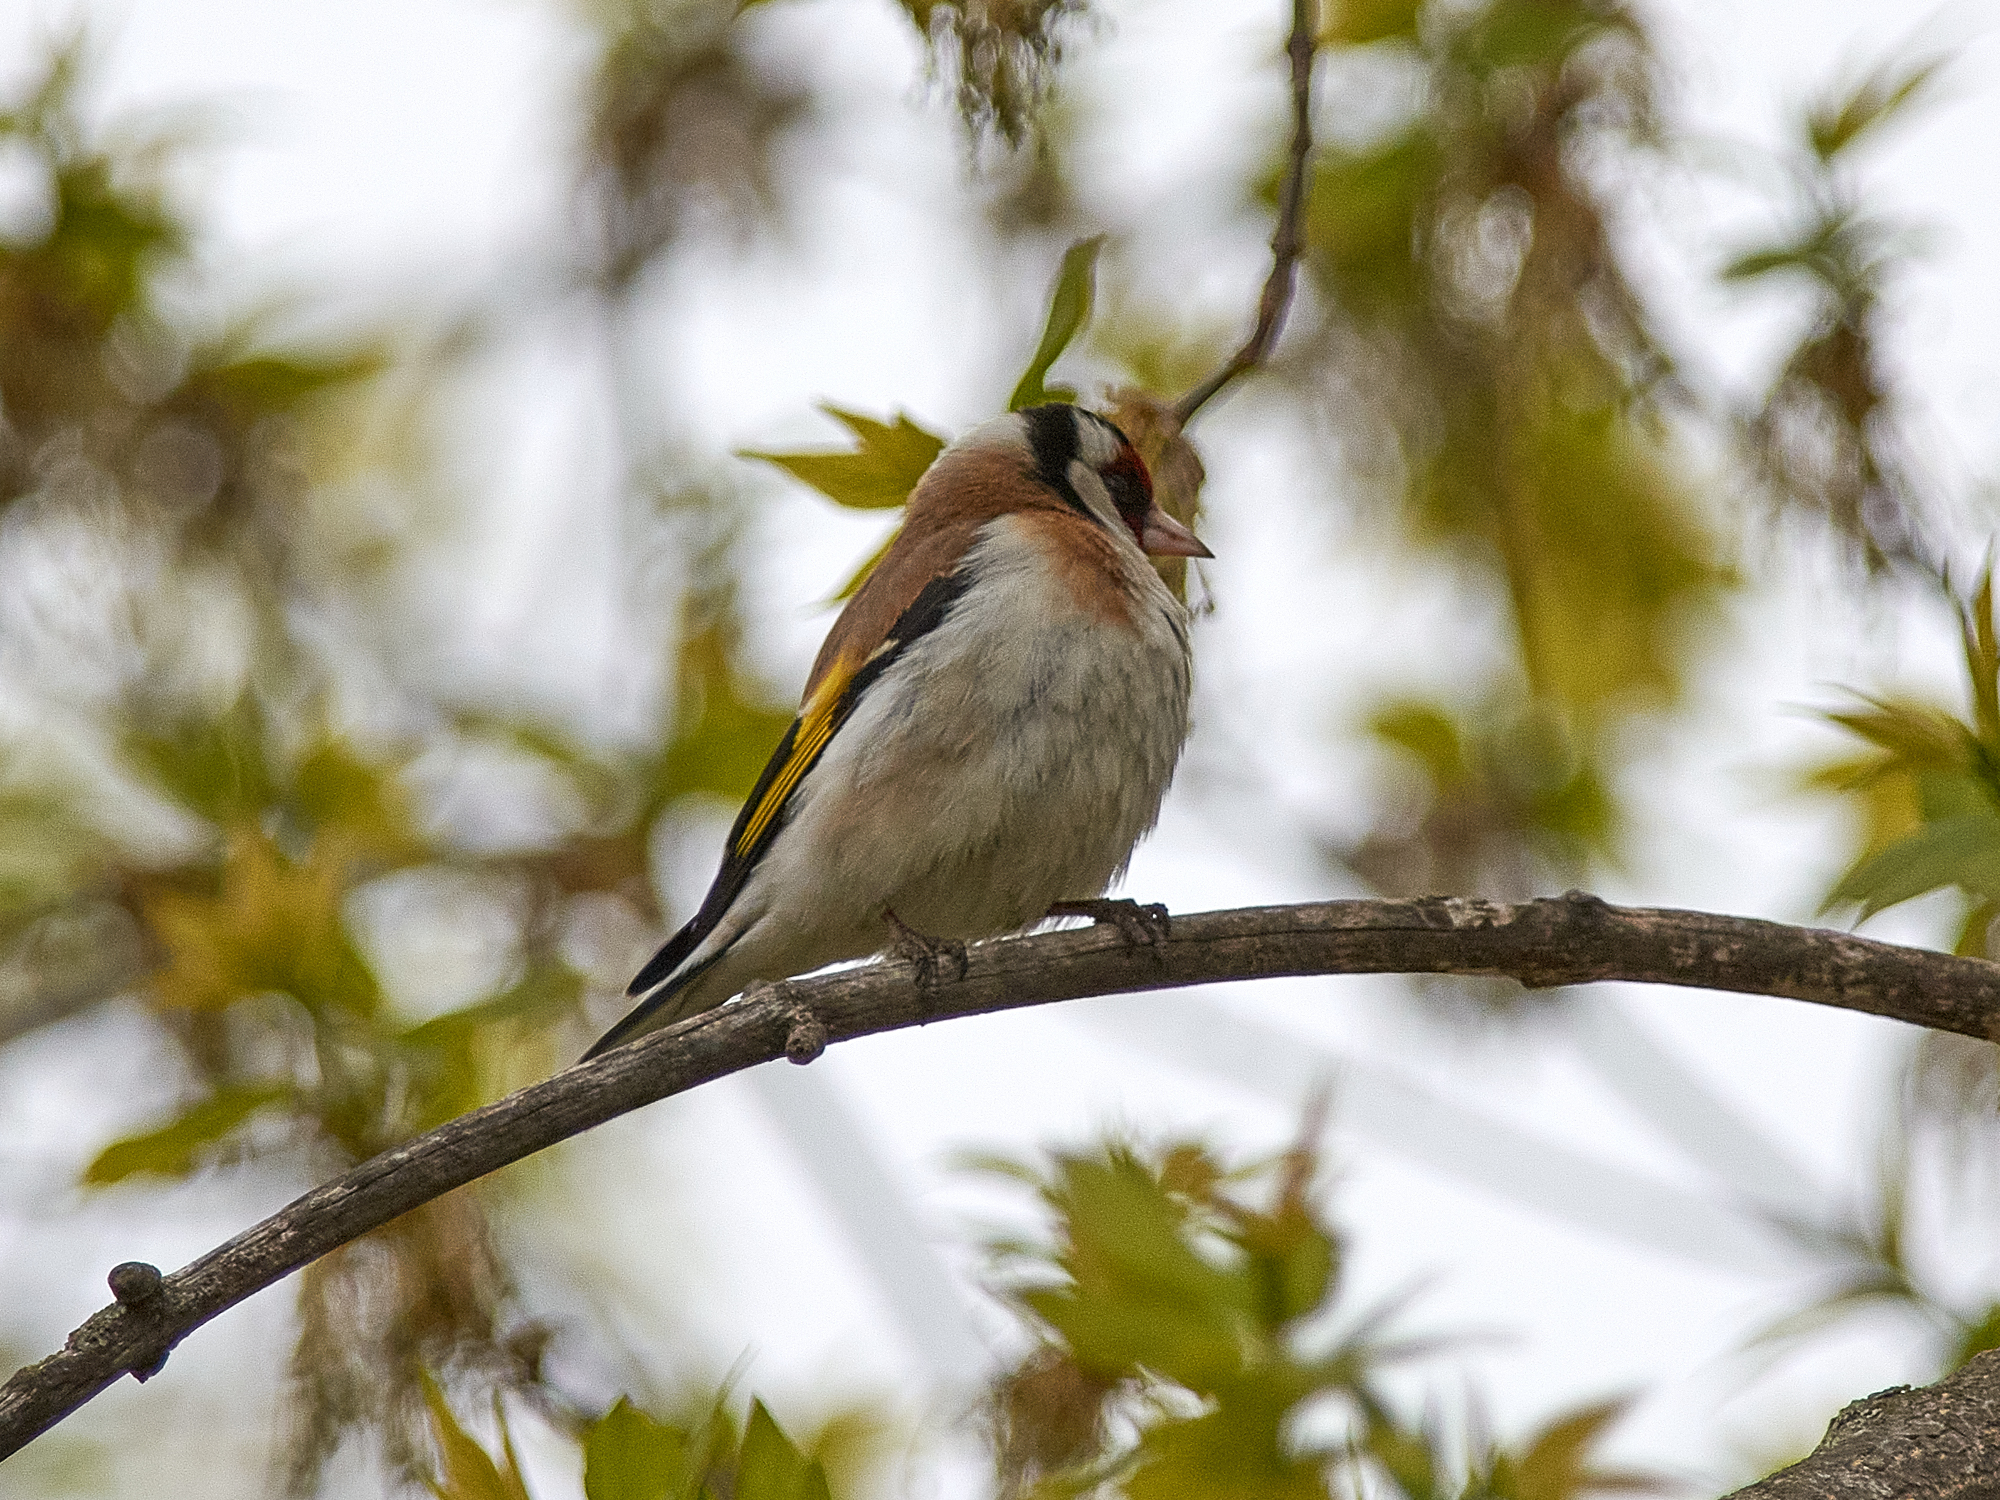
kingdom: Animalia
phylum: Chordata
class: Aves
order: Passeriformes
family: Fringillidae
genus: Carduelis
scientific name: Carduelis carduelis
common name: European goldfinch
